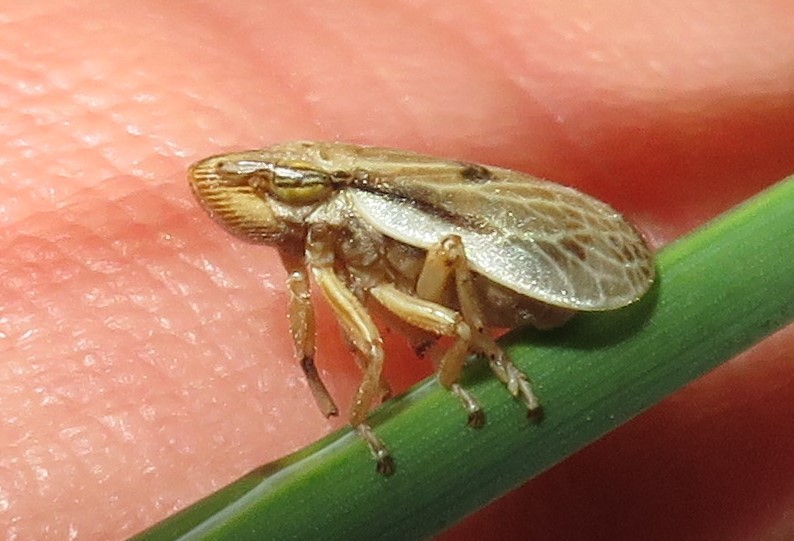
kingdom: Animalia
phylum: Arthropoda
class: Insecta
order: Hemiptera
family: Aphrophoridae
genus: Philaenarcys
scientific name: Philaenarcys bilineata
